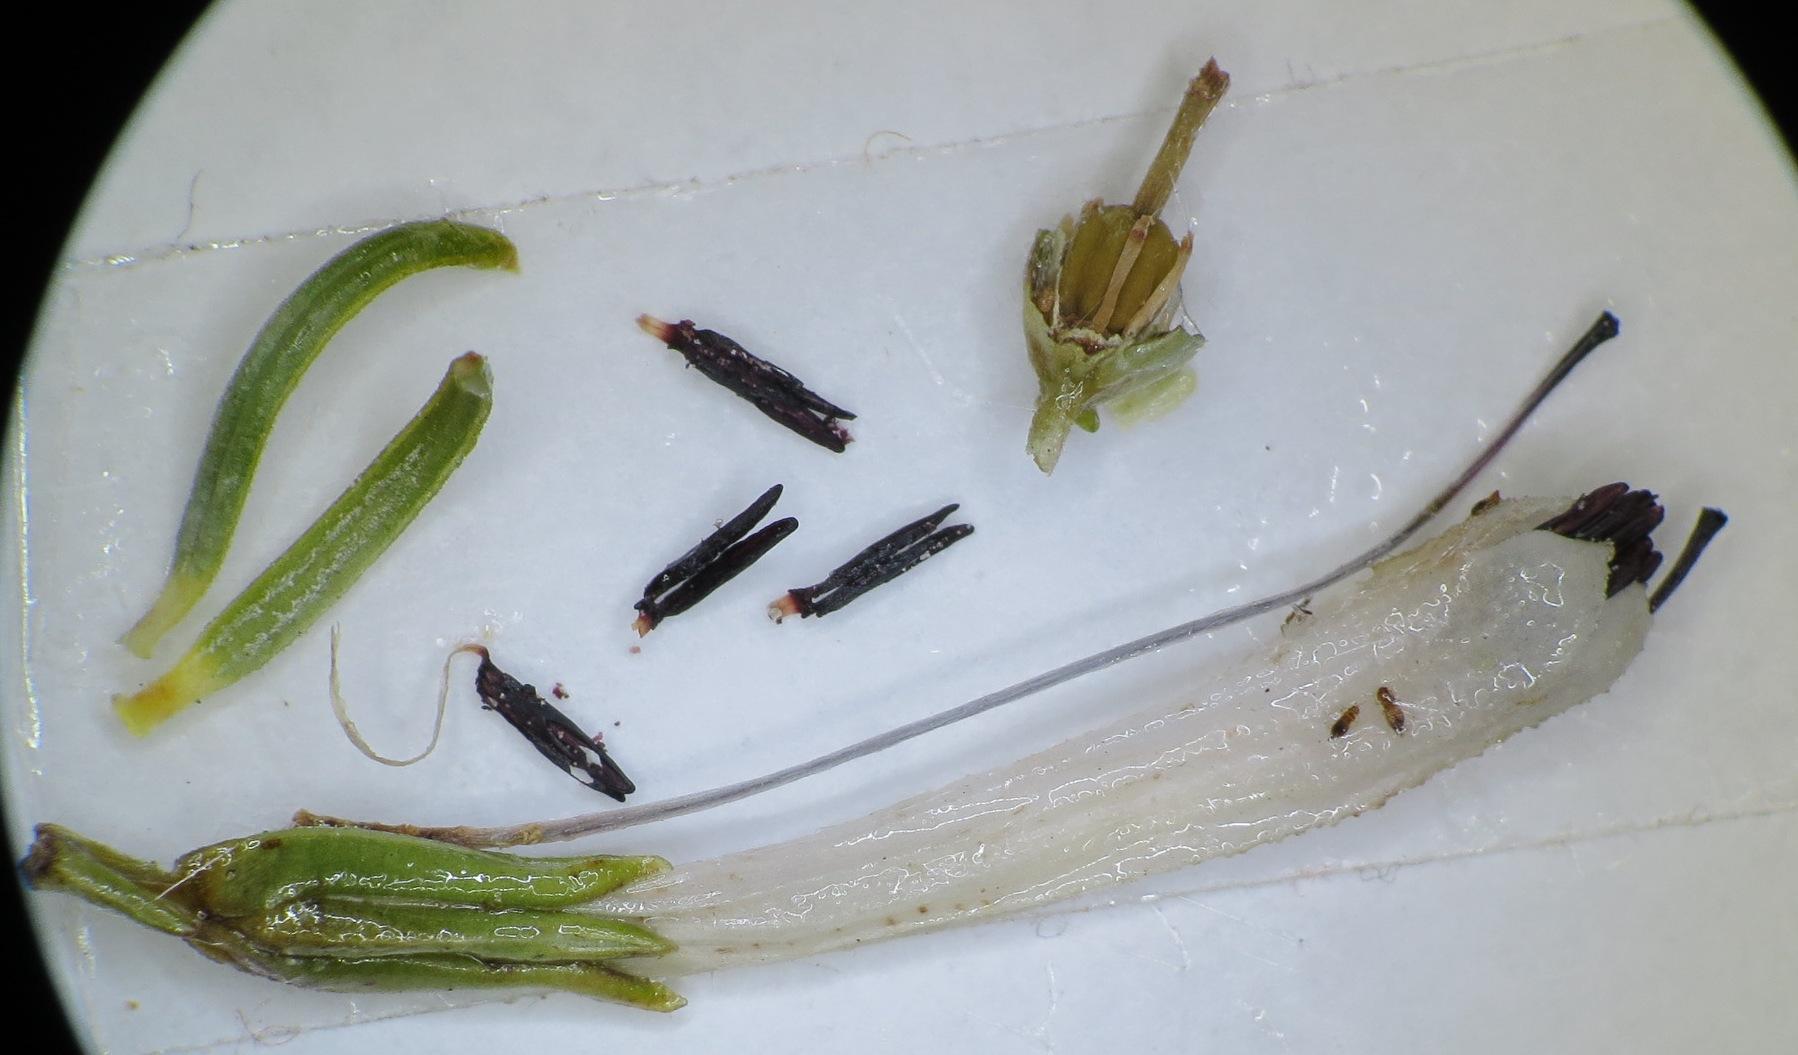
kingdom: Plantae
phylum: Tracheophyta
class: Magnoliopsida
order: Ericales
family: Ericaceae
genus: Erica
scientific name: Erica thomae
